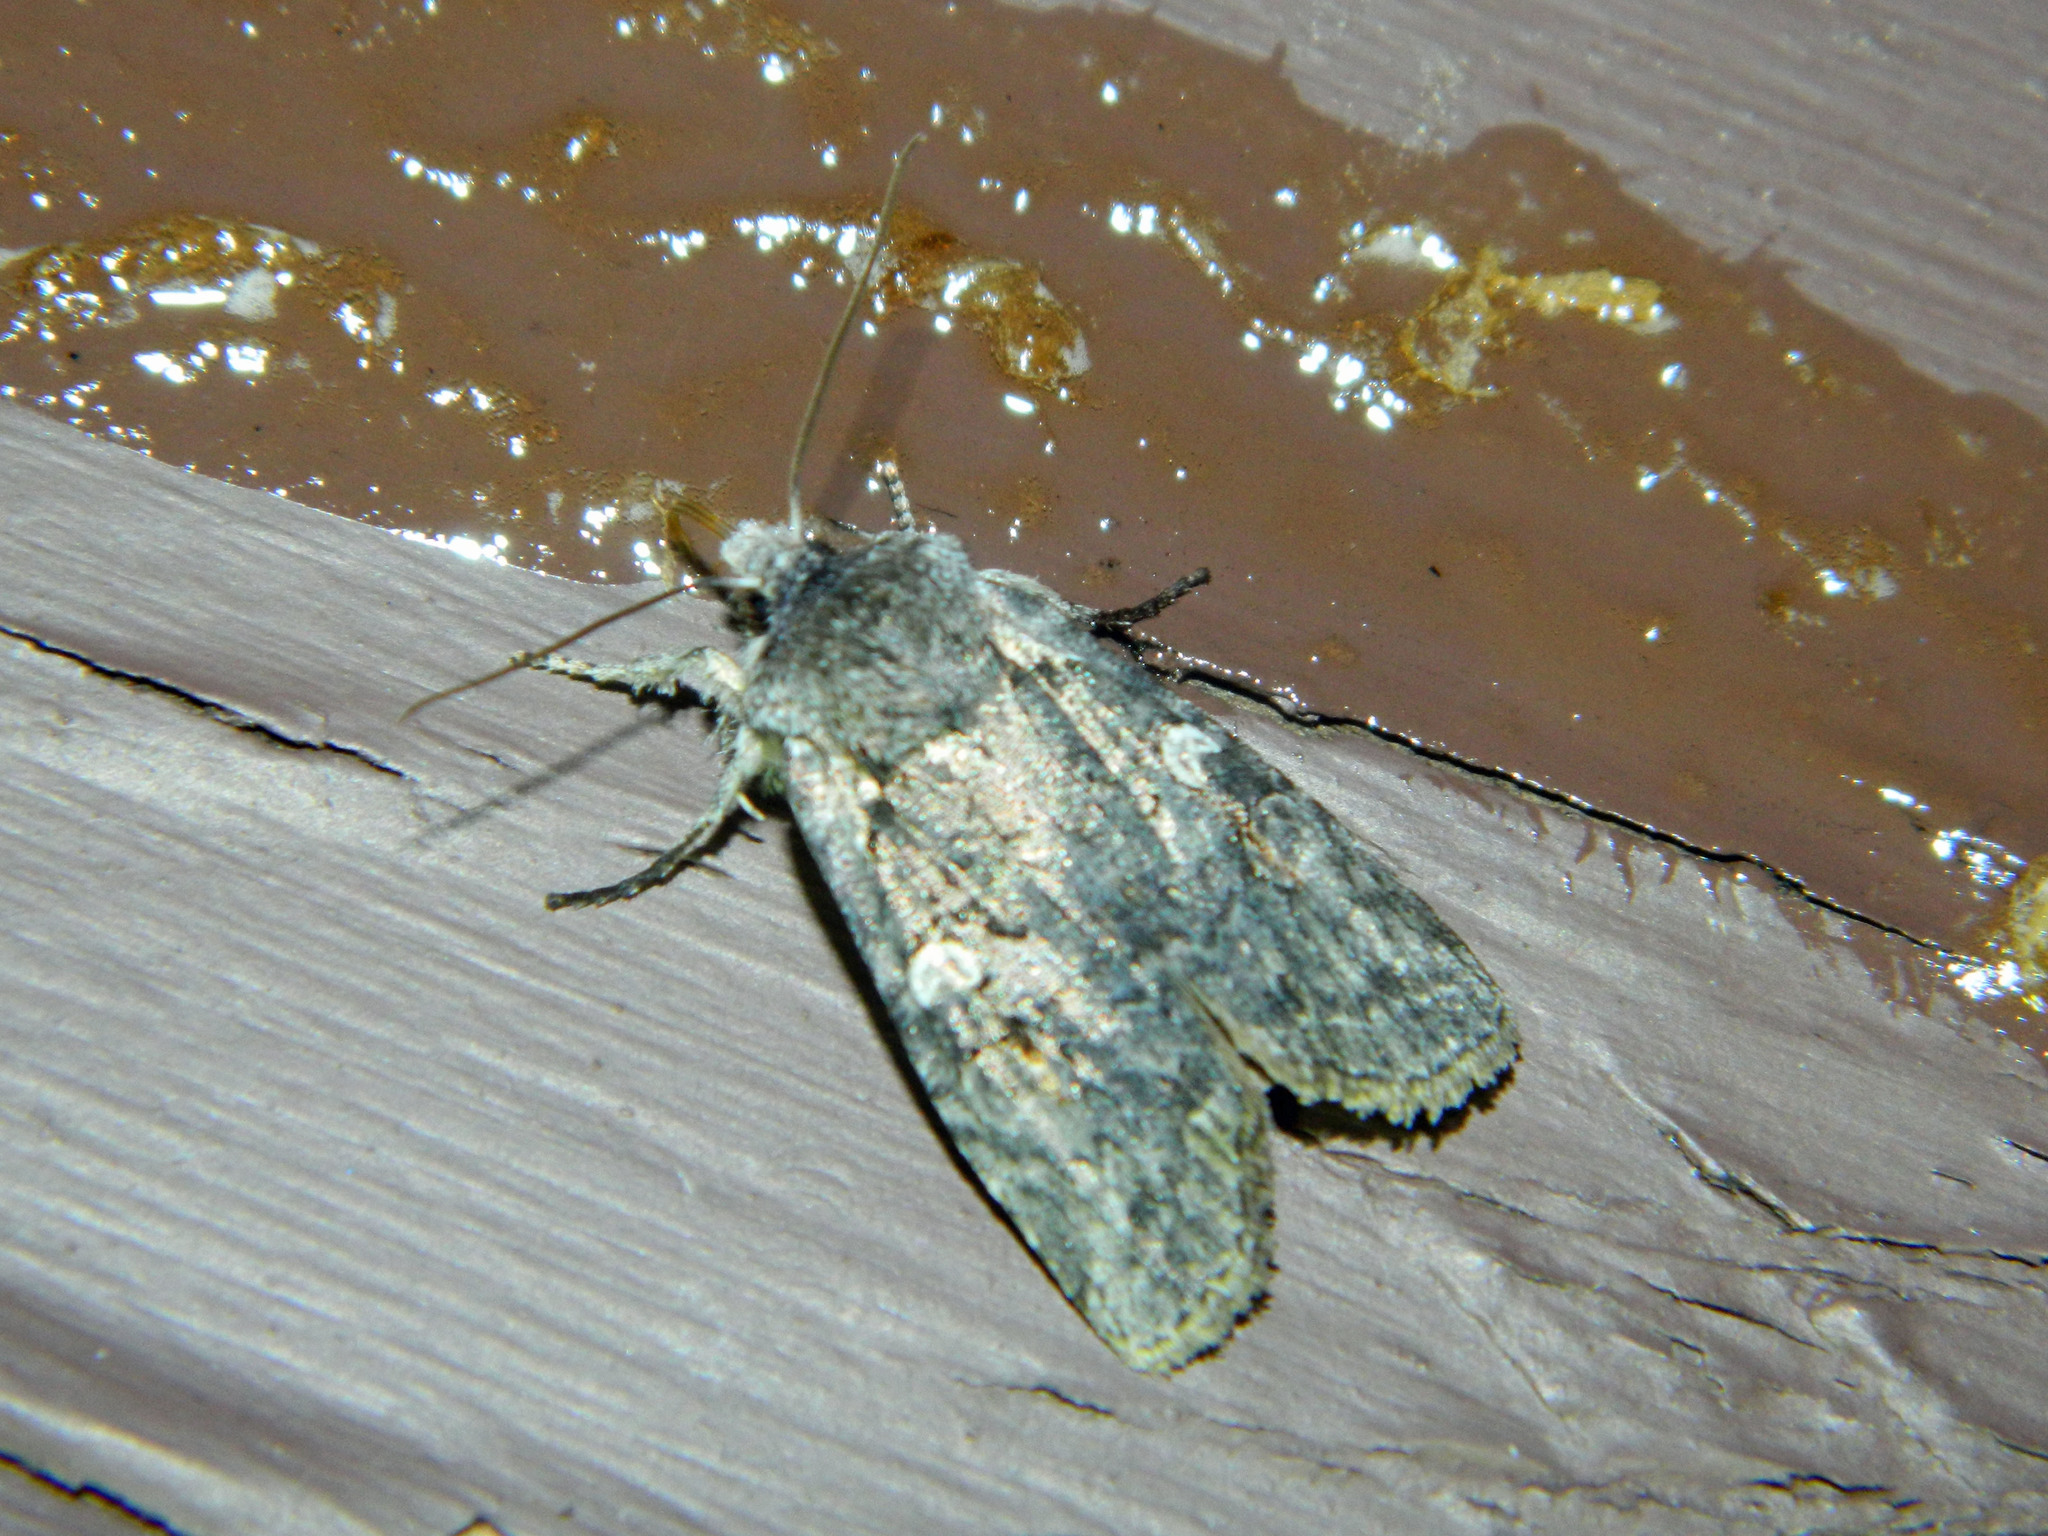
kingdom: Animalia
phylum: Arthropoda
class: Insecta
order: Lepidoptera
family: Noctuidae
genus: Lithophane
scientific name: Lithophane tepida
